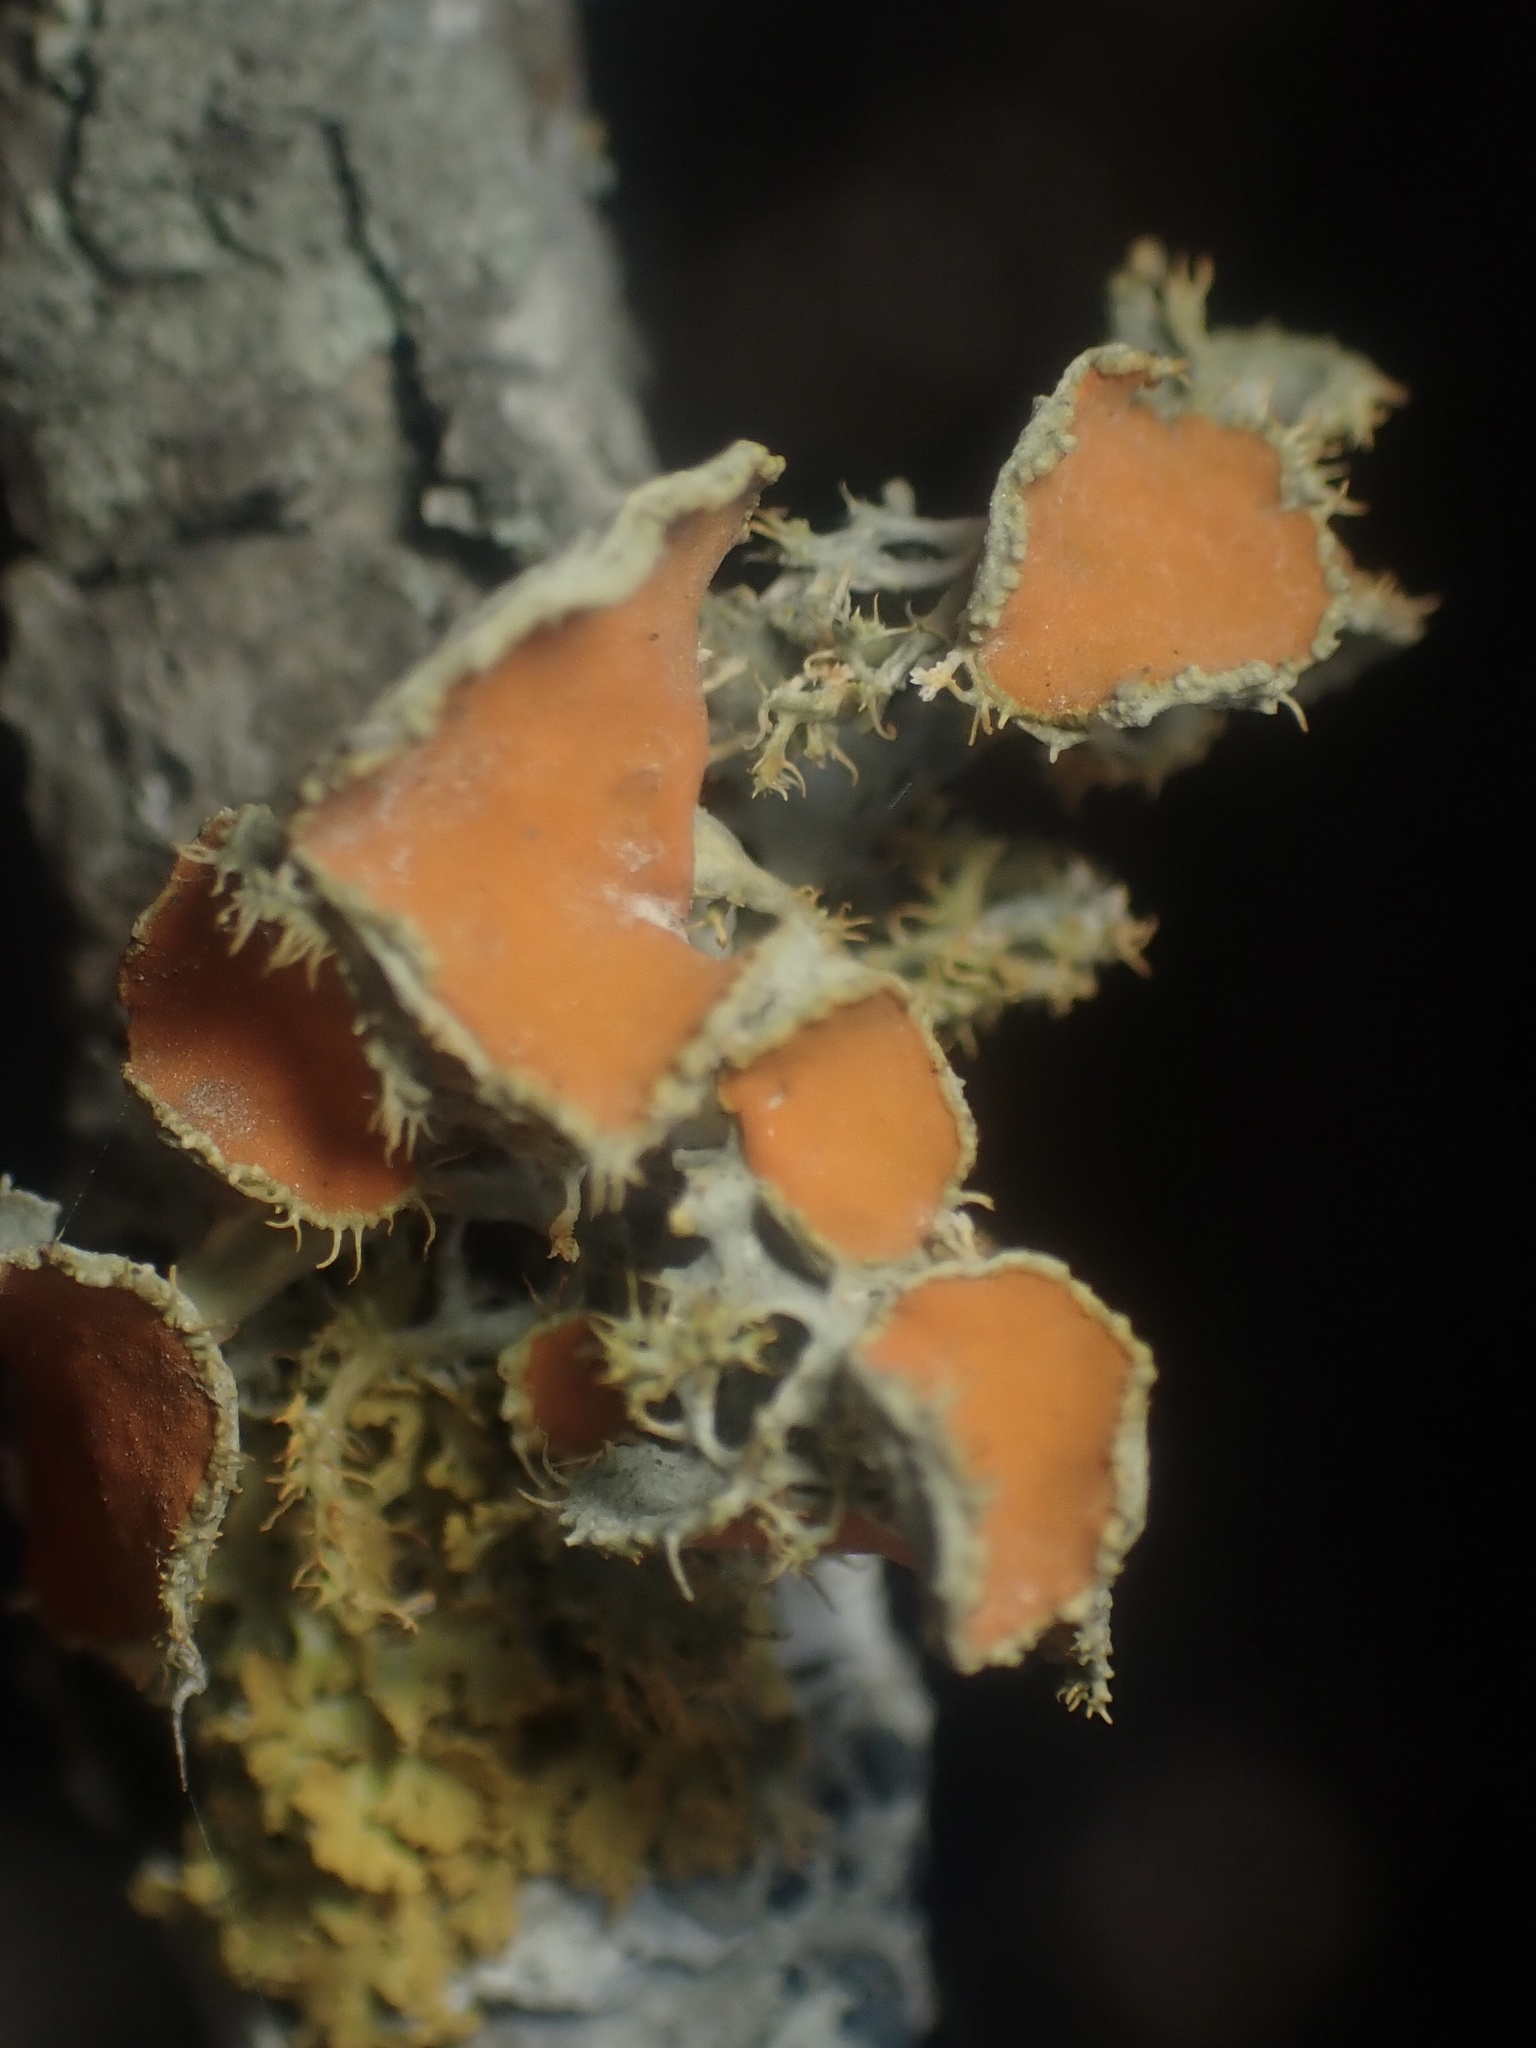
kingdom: Fungi
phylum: Ascomycota
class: Lecanoromycetes
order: Teloschistales
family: Teloschistaceae
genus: Niorma
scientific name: Niorma chrysophthalma
